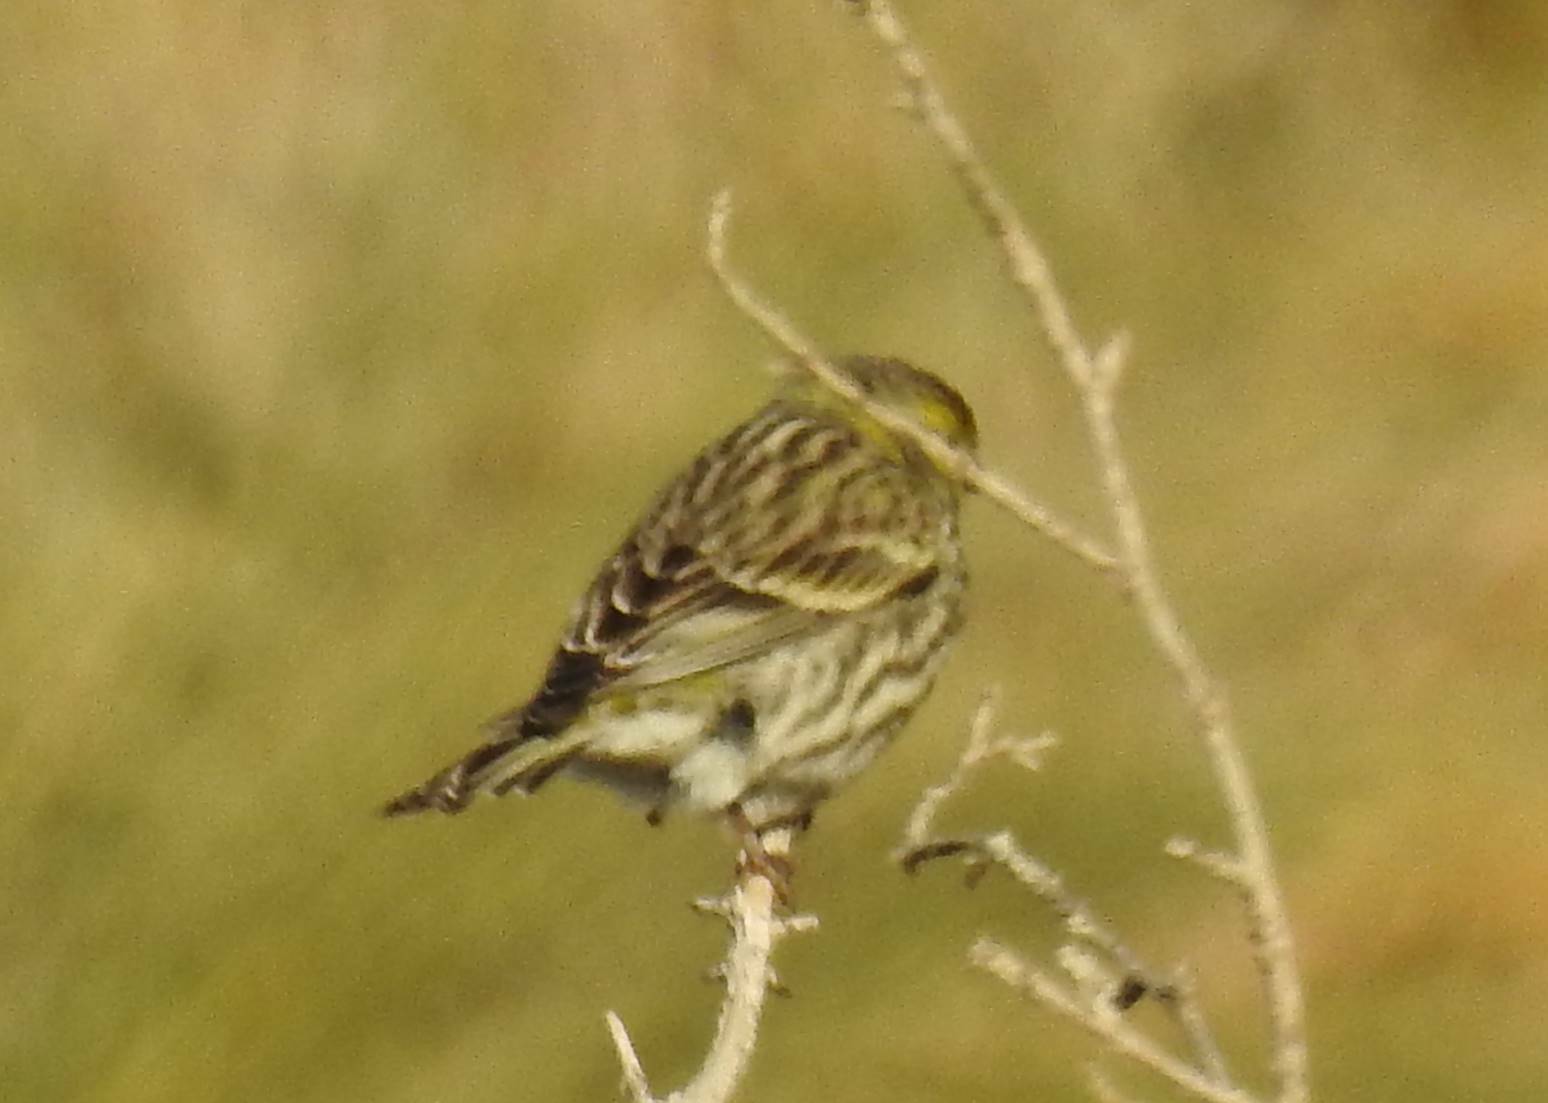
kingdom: Animalia
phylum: Chordata
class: Aves
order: Passeriformes
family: Fringillidae
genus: Serinus
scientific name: Serinus serinus
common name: European serin
